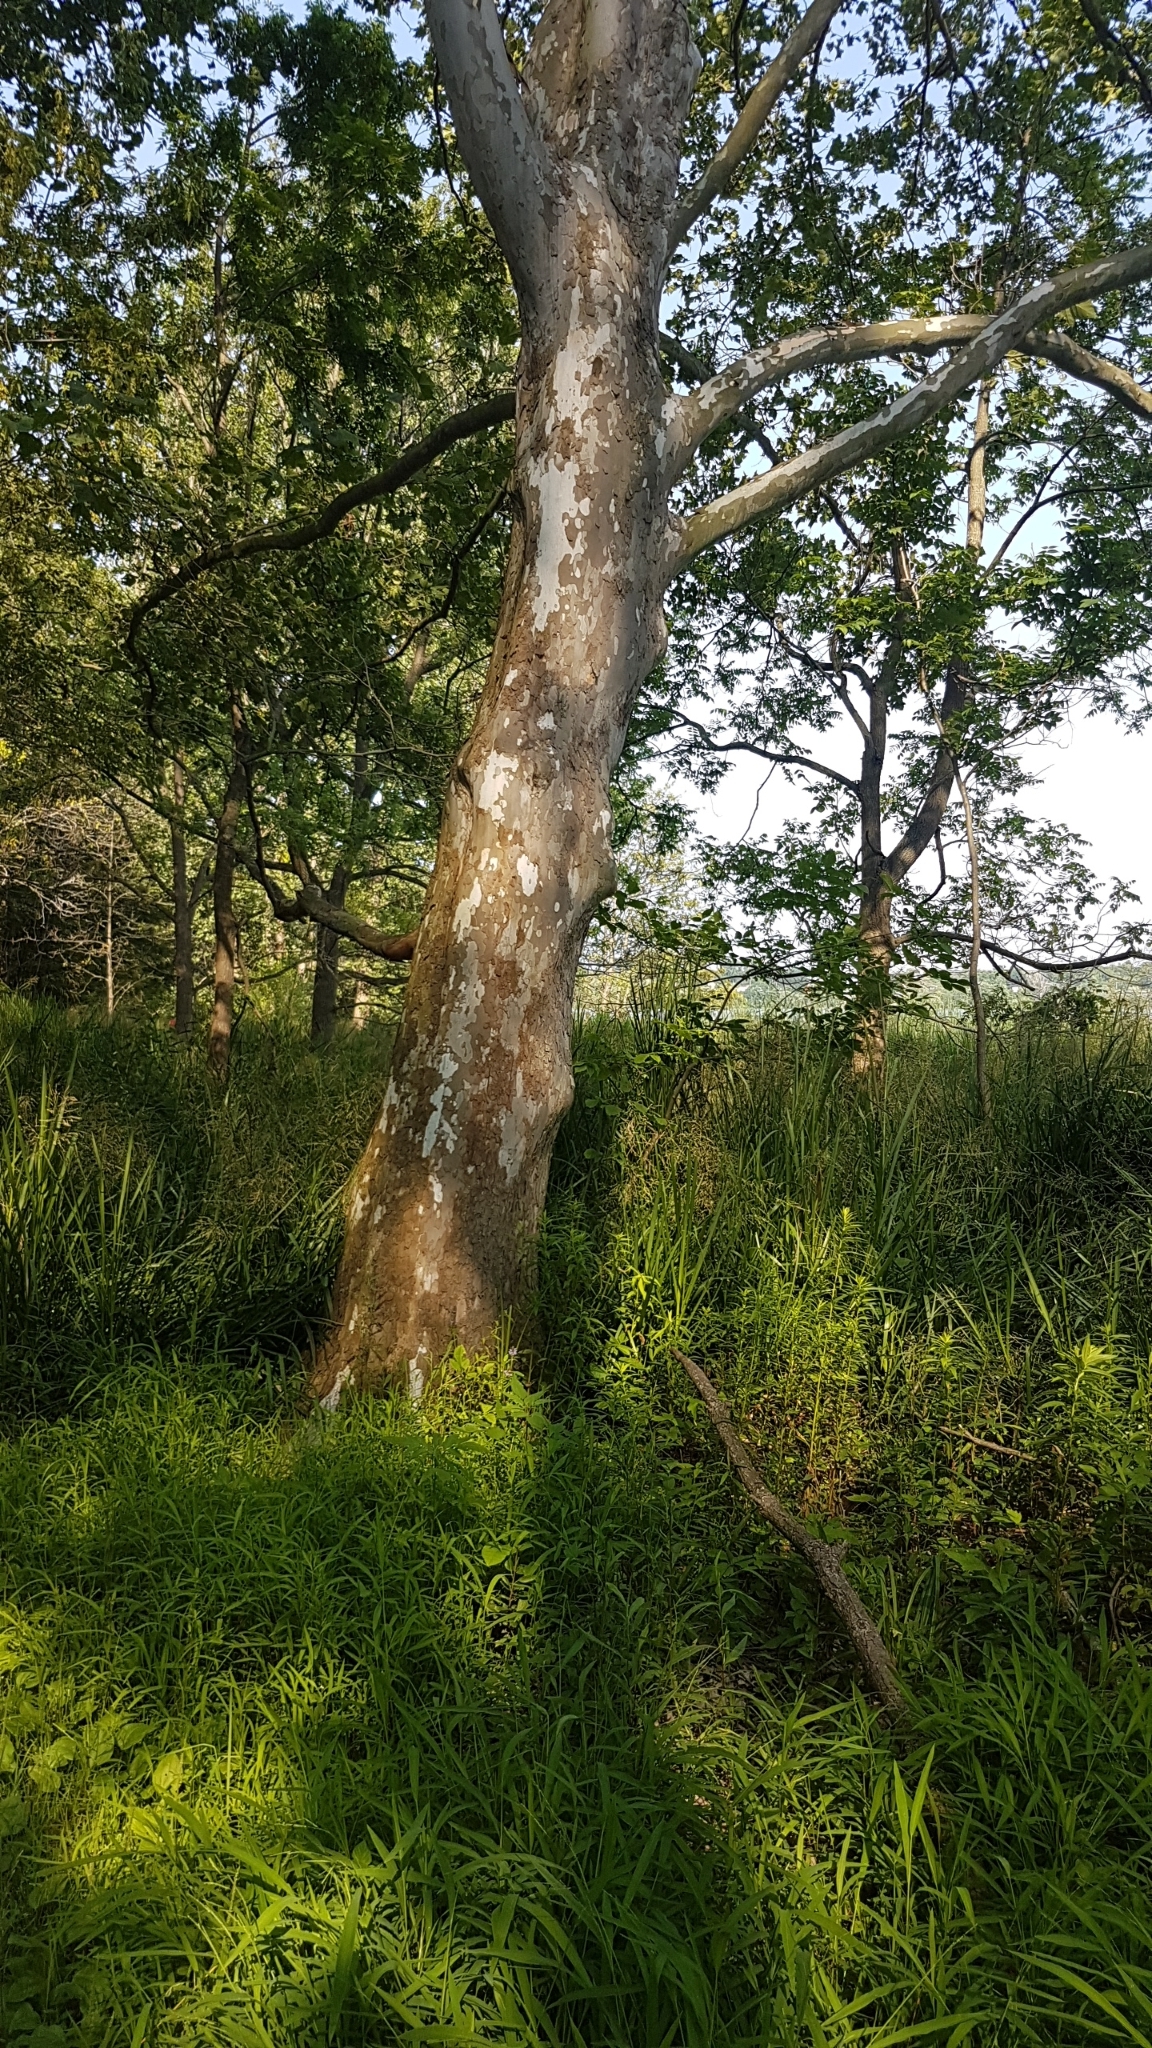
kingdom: Plantae
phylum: Tracheophyta
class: Magnoliopsida
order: Proteales
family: Platanaceae
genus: Platanus
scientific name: Platanus occidentalis
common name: American sycamore
